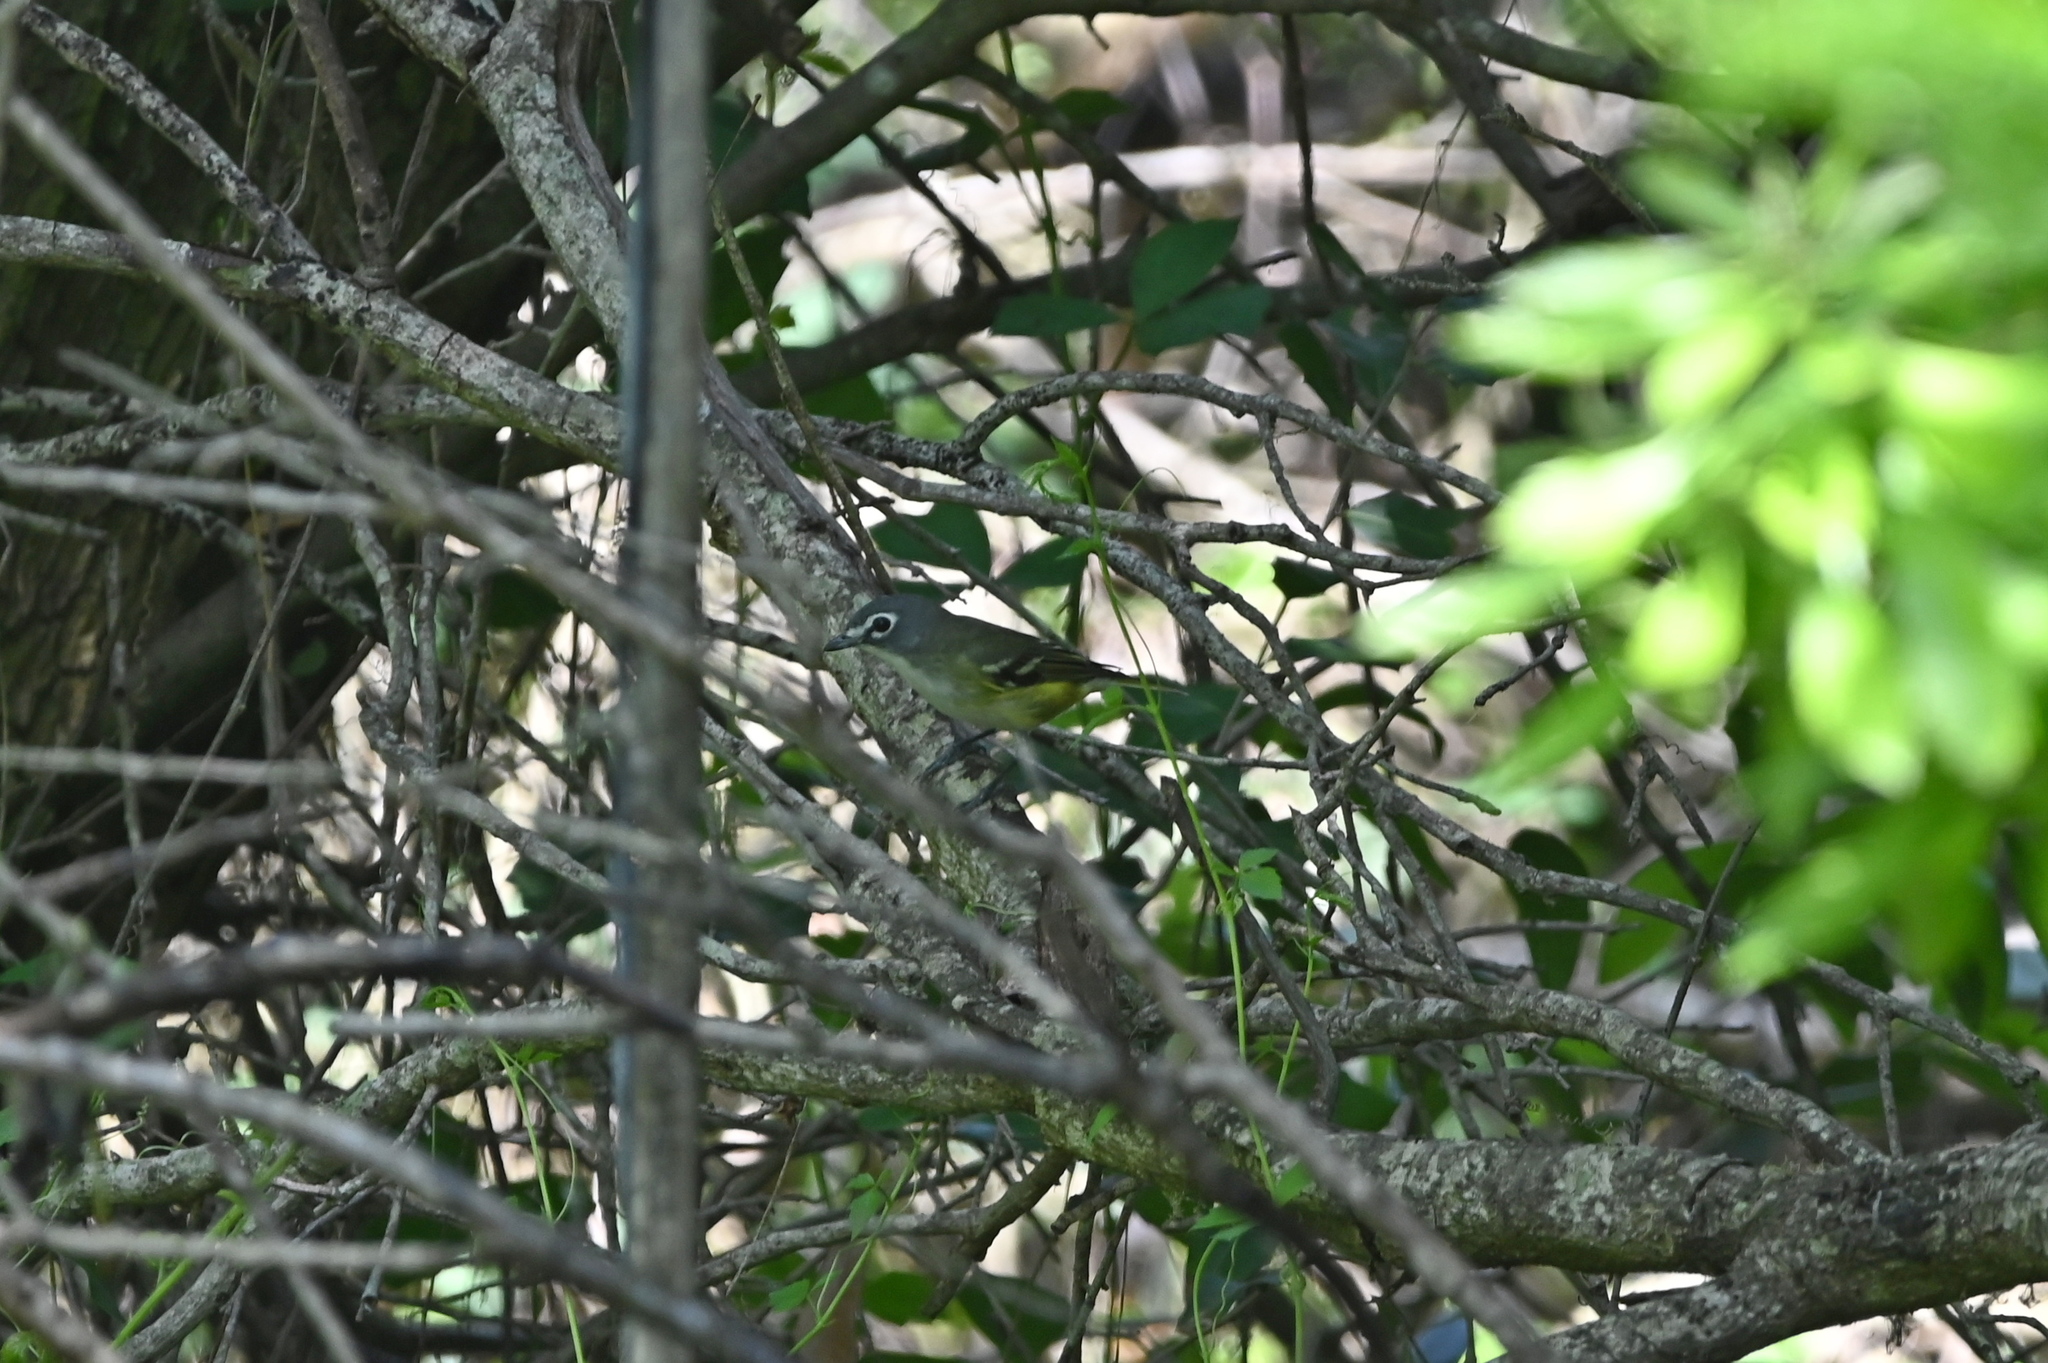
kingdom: Animalia
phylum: Chordata
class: Aves
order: Passeriformes
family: Vireonidae
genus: Vireo
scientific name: Vireo solitarius
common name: Blue-headed vireo
